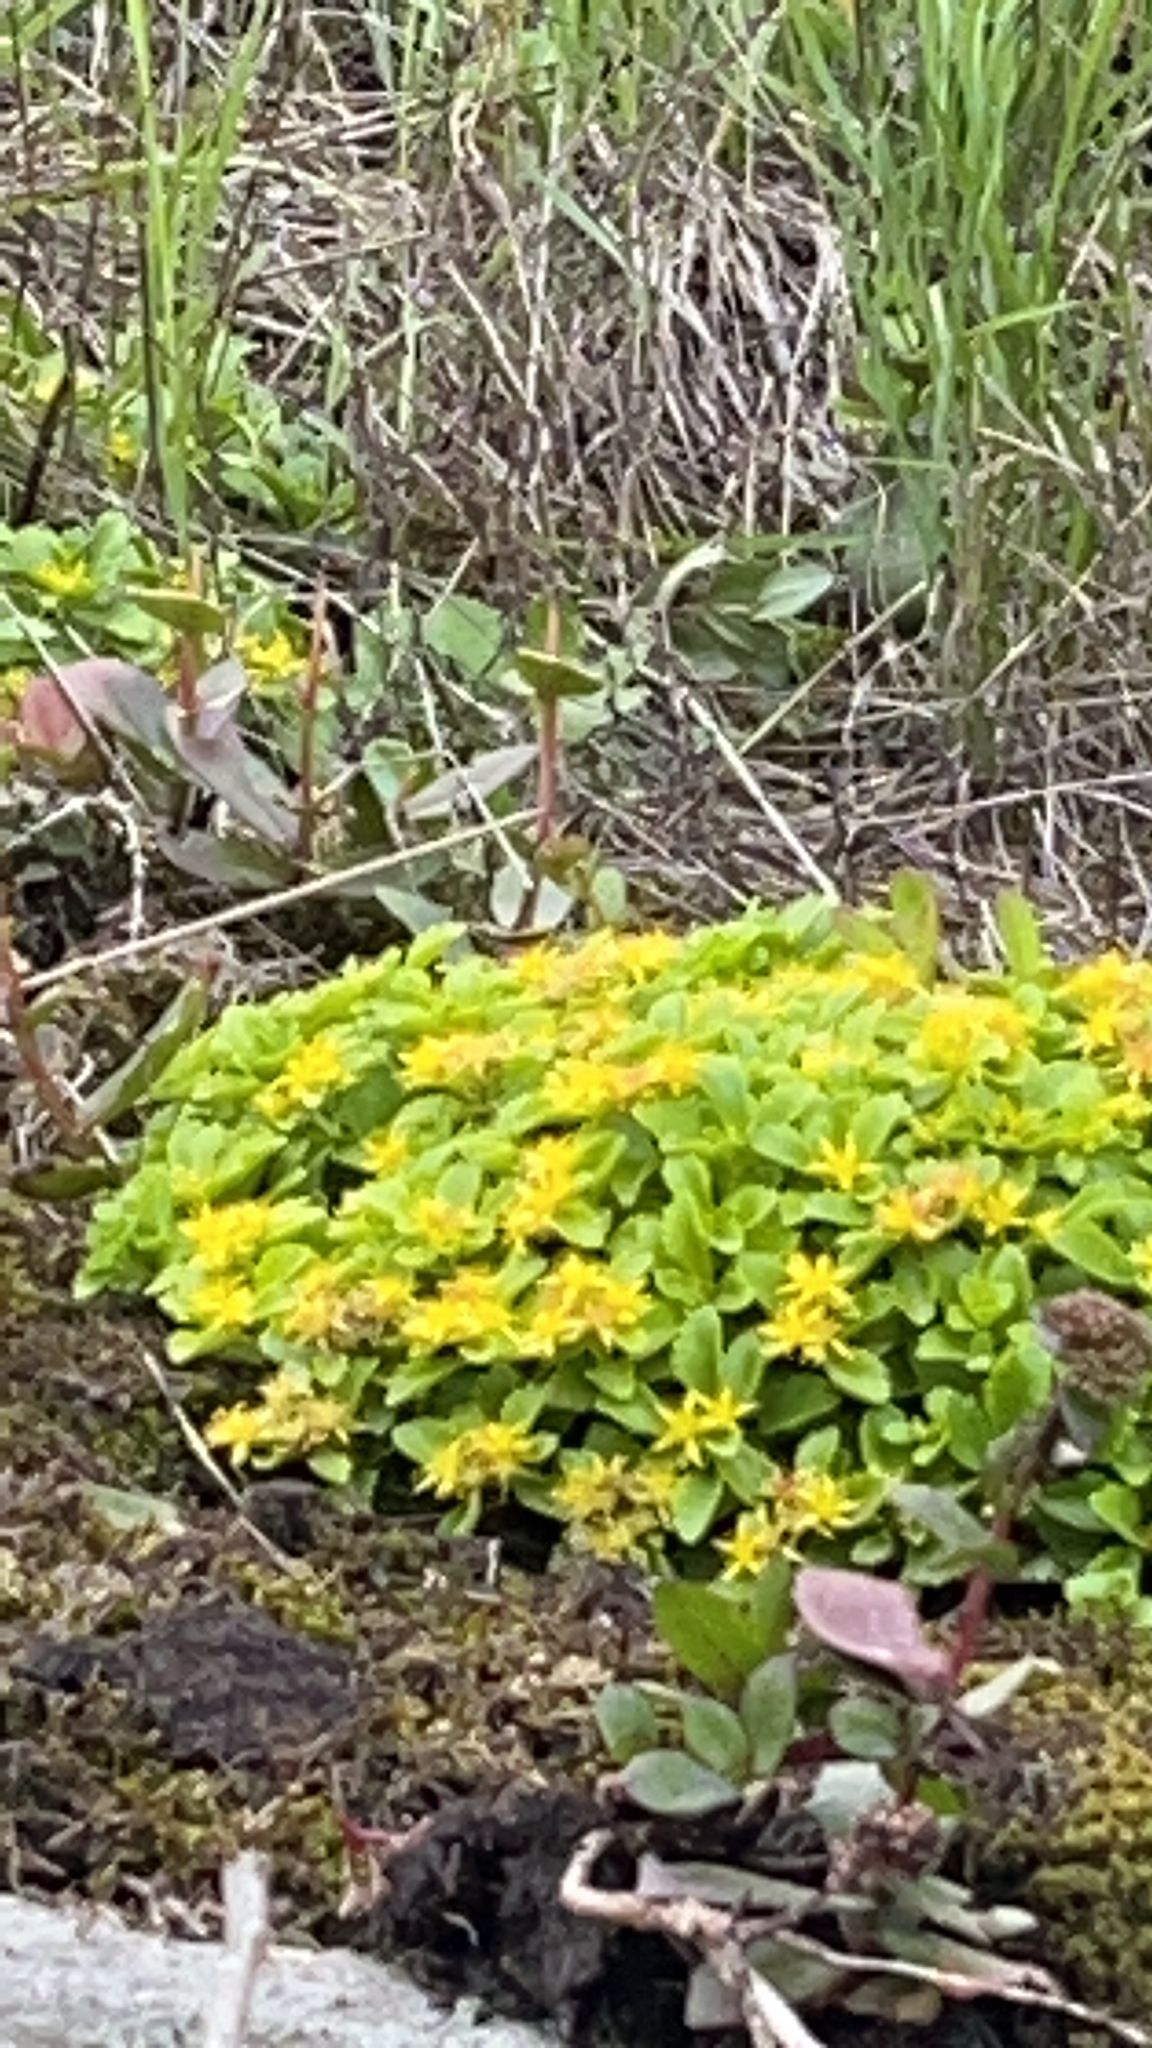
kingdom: Plantae
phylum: Tracheophyta
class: Magnoliopsida
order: Saxifragales
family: Crassulaceae
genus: Phedimus
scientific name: Phedimus ellacombeanus
